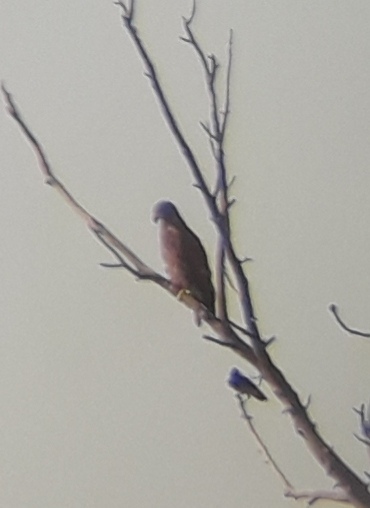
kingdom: Animalia
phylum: Chordata
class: Aves
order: Accipitriformes
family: Accipitridae
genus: Haliaeetus
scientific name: Haliaeetus albicilla
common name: White-tailed eagle
